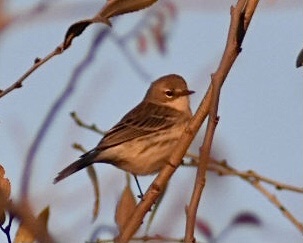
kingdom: Animalia
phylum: Chordata
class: Aves
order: Passeriformes
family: Parulidae
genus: Setophaga
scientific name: Setophaga coronata
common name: Myrtle warbler
